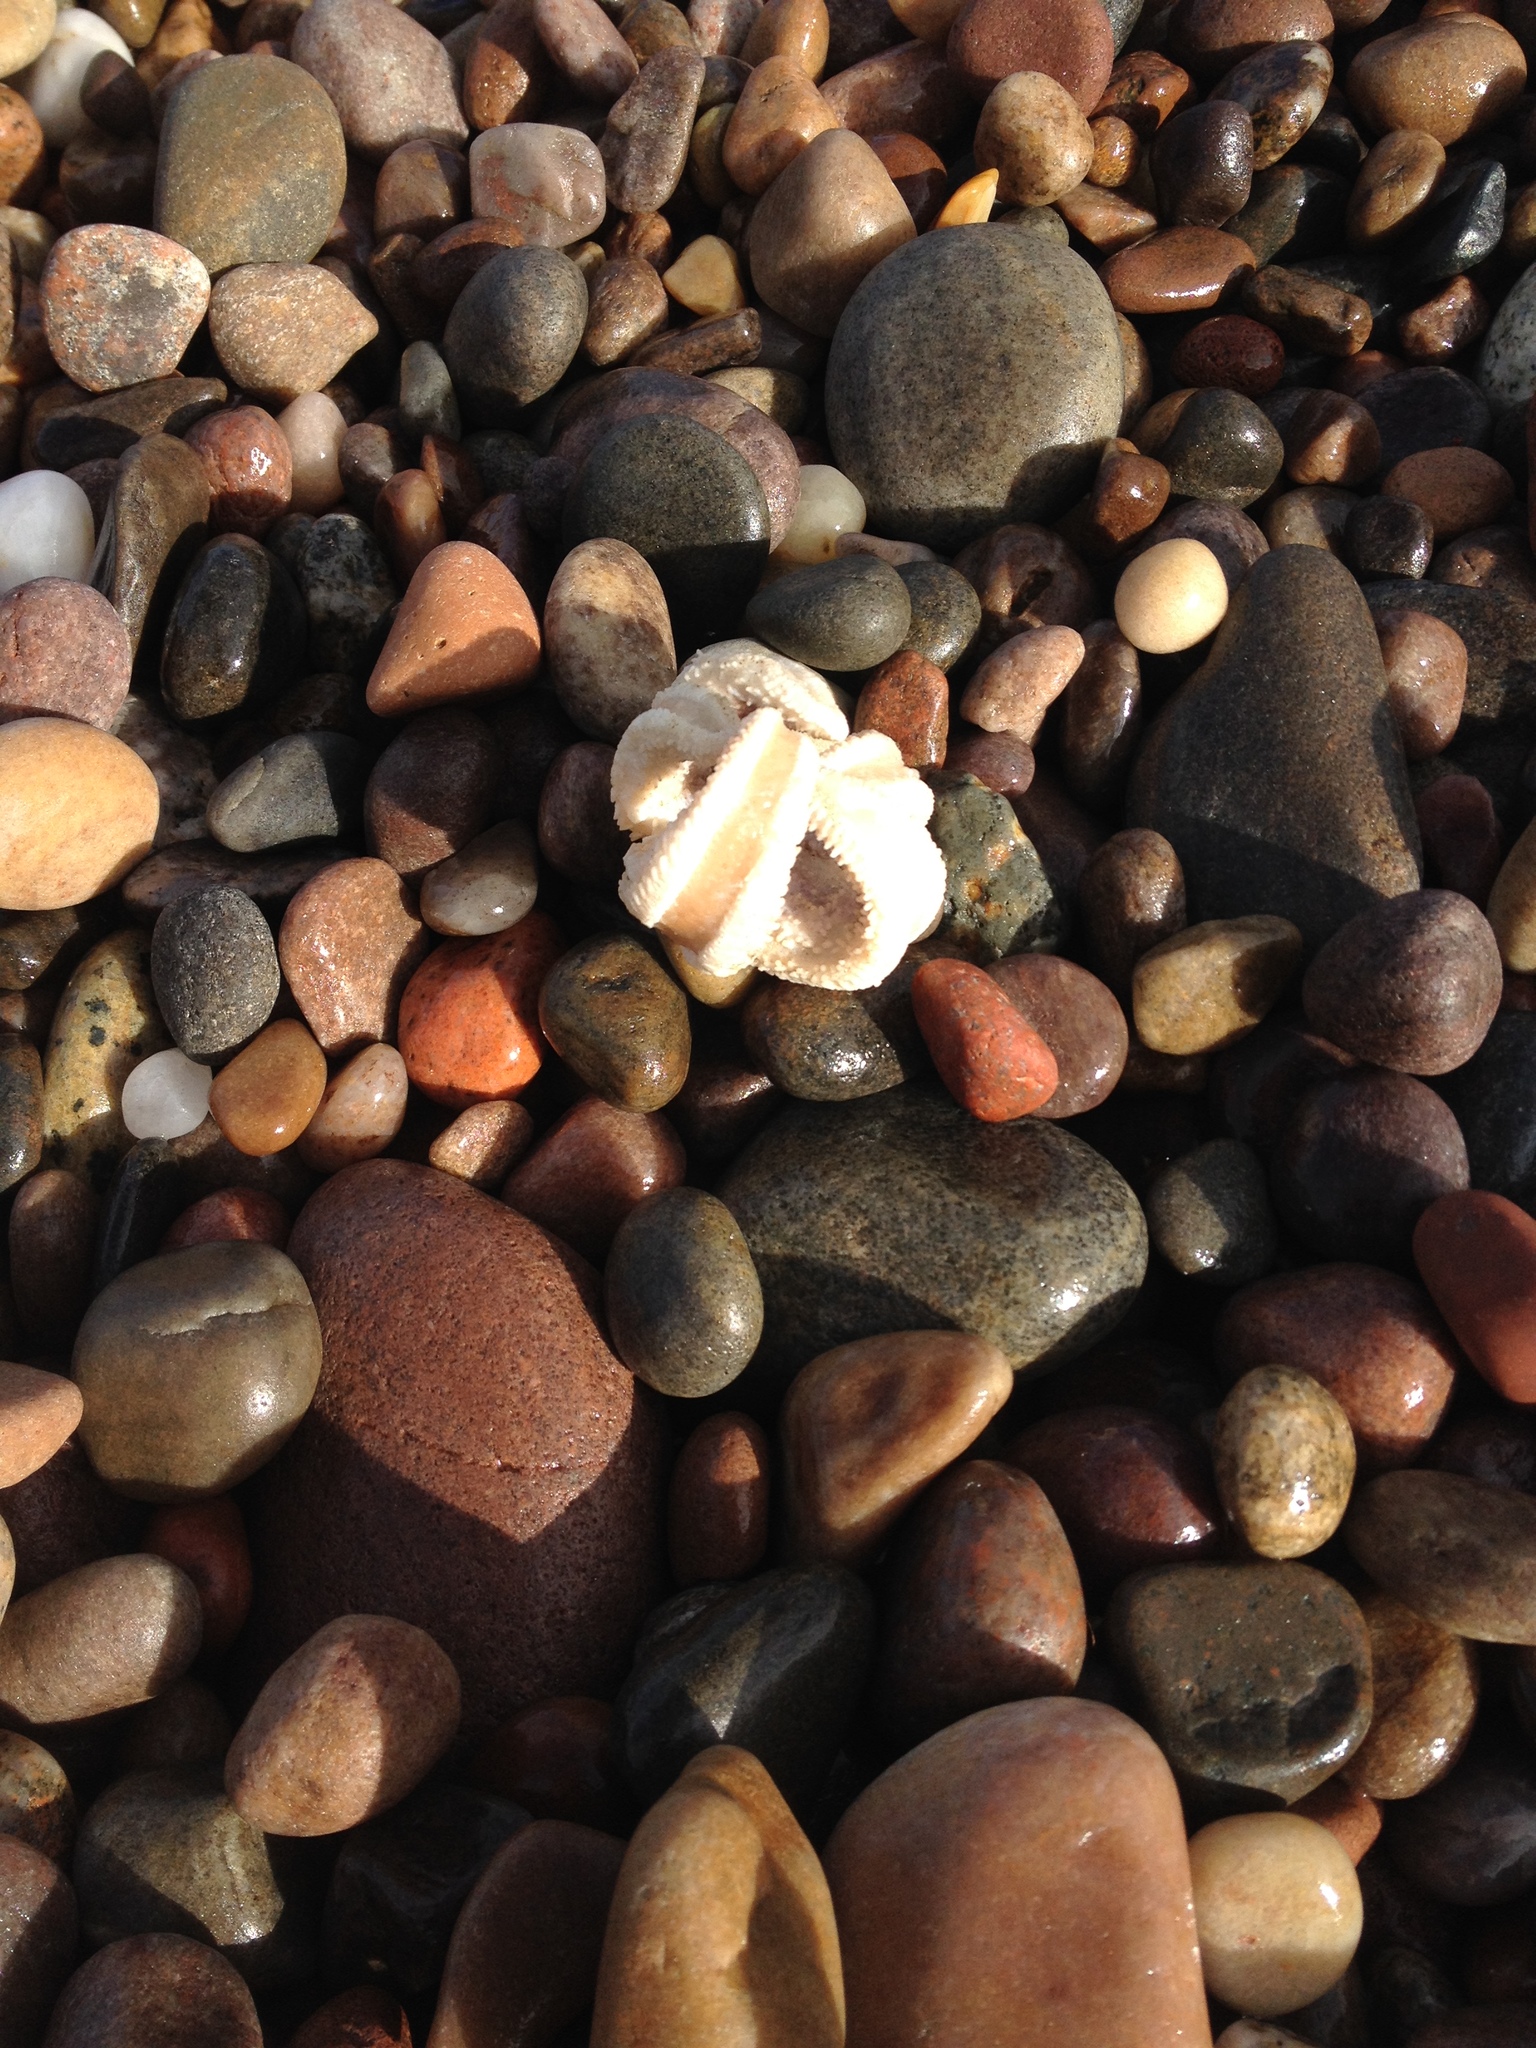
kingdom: Animalia
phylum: Echinodermata
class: Asteroidea
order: Forcipulatida
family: Asteriidae
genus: Asterias
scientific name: Asterias rubens
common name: Common starfish
